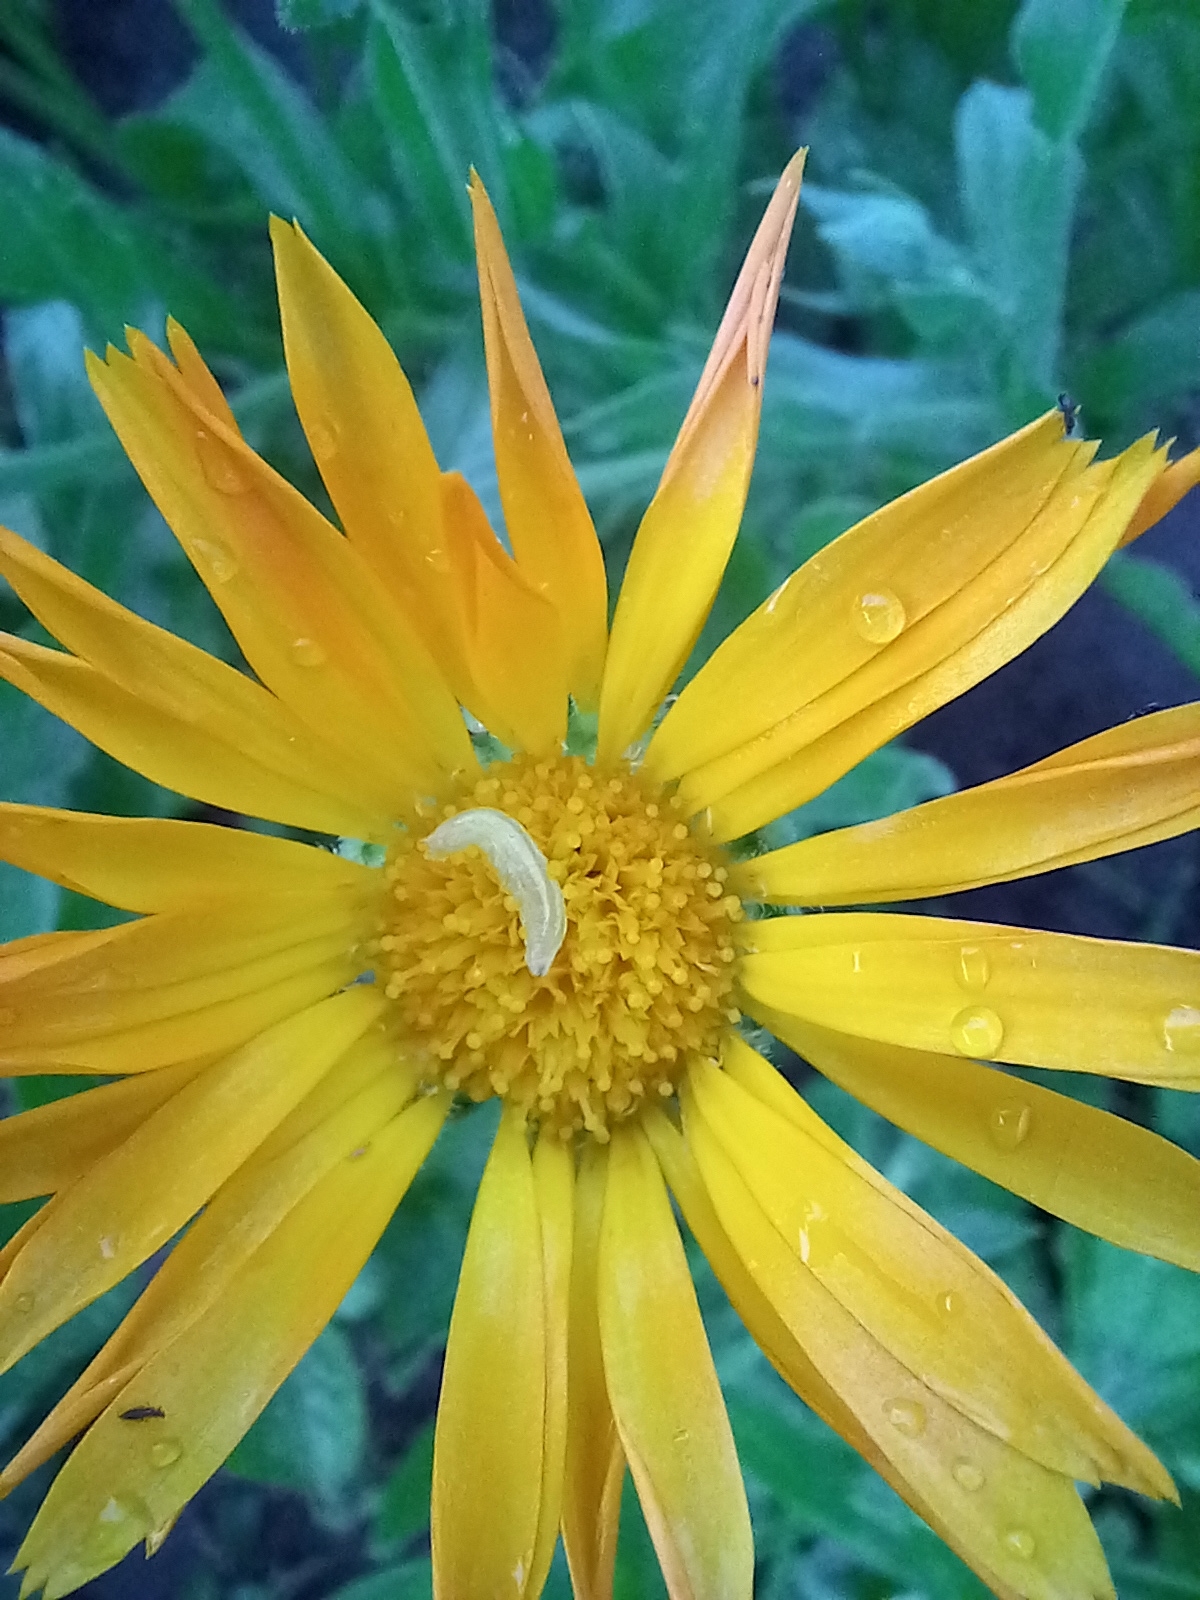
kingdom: Plantae
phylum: Tracheophyta
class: Magnoliopsida
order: Asterales
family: Asteraceae
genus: Calendula
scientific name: Calendula officinalis
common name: Pot marigold
